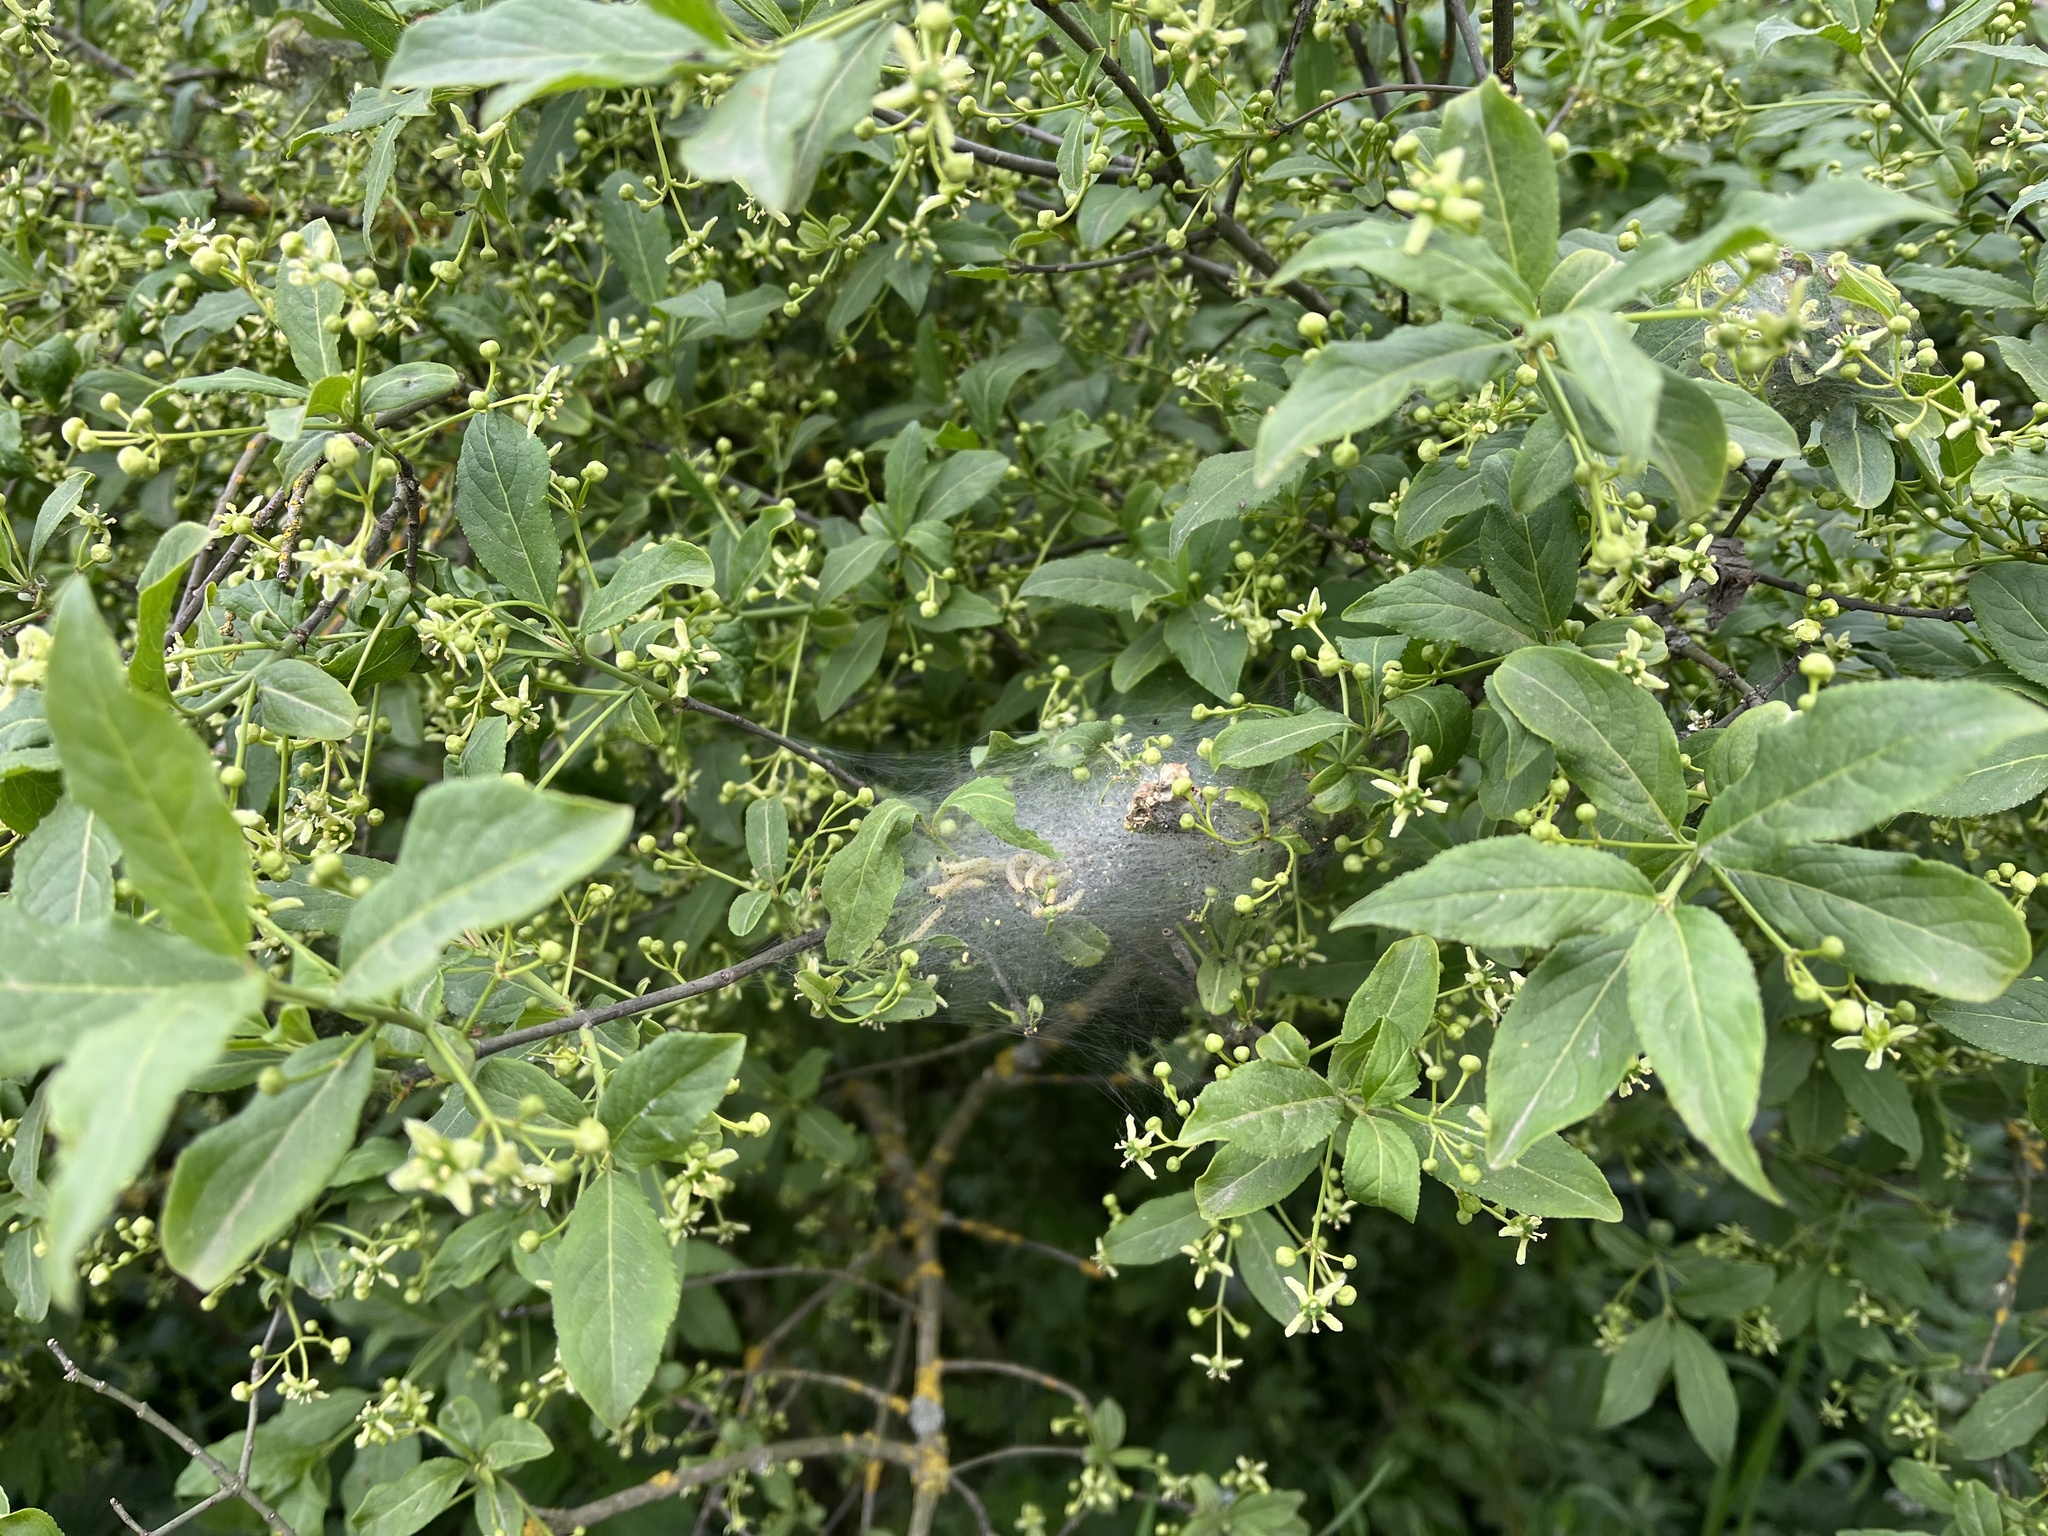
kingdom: Plantae
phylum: Tracheophyta
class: Magnoliopsida
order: Celastrales
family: Celastraceae
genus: Euonymus
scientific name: Euonymus europaeus
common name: Spindle
